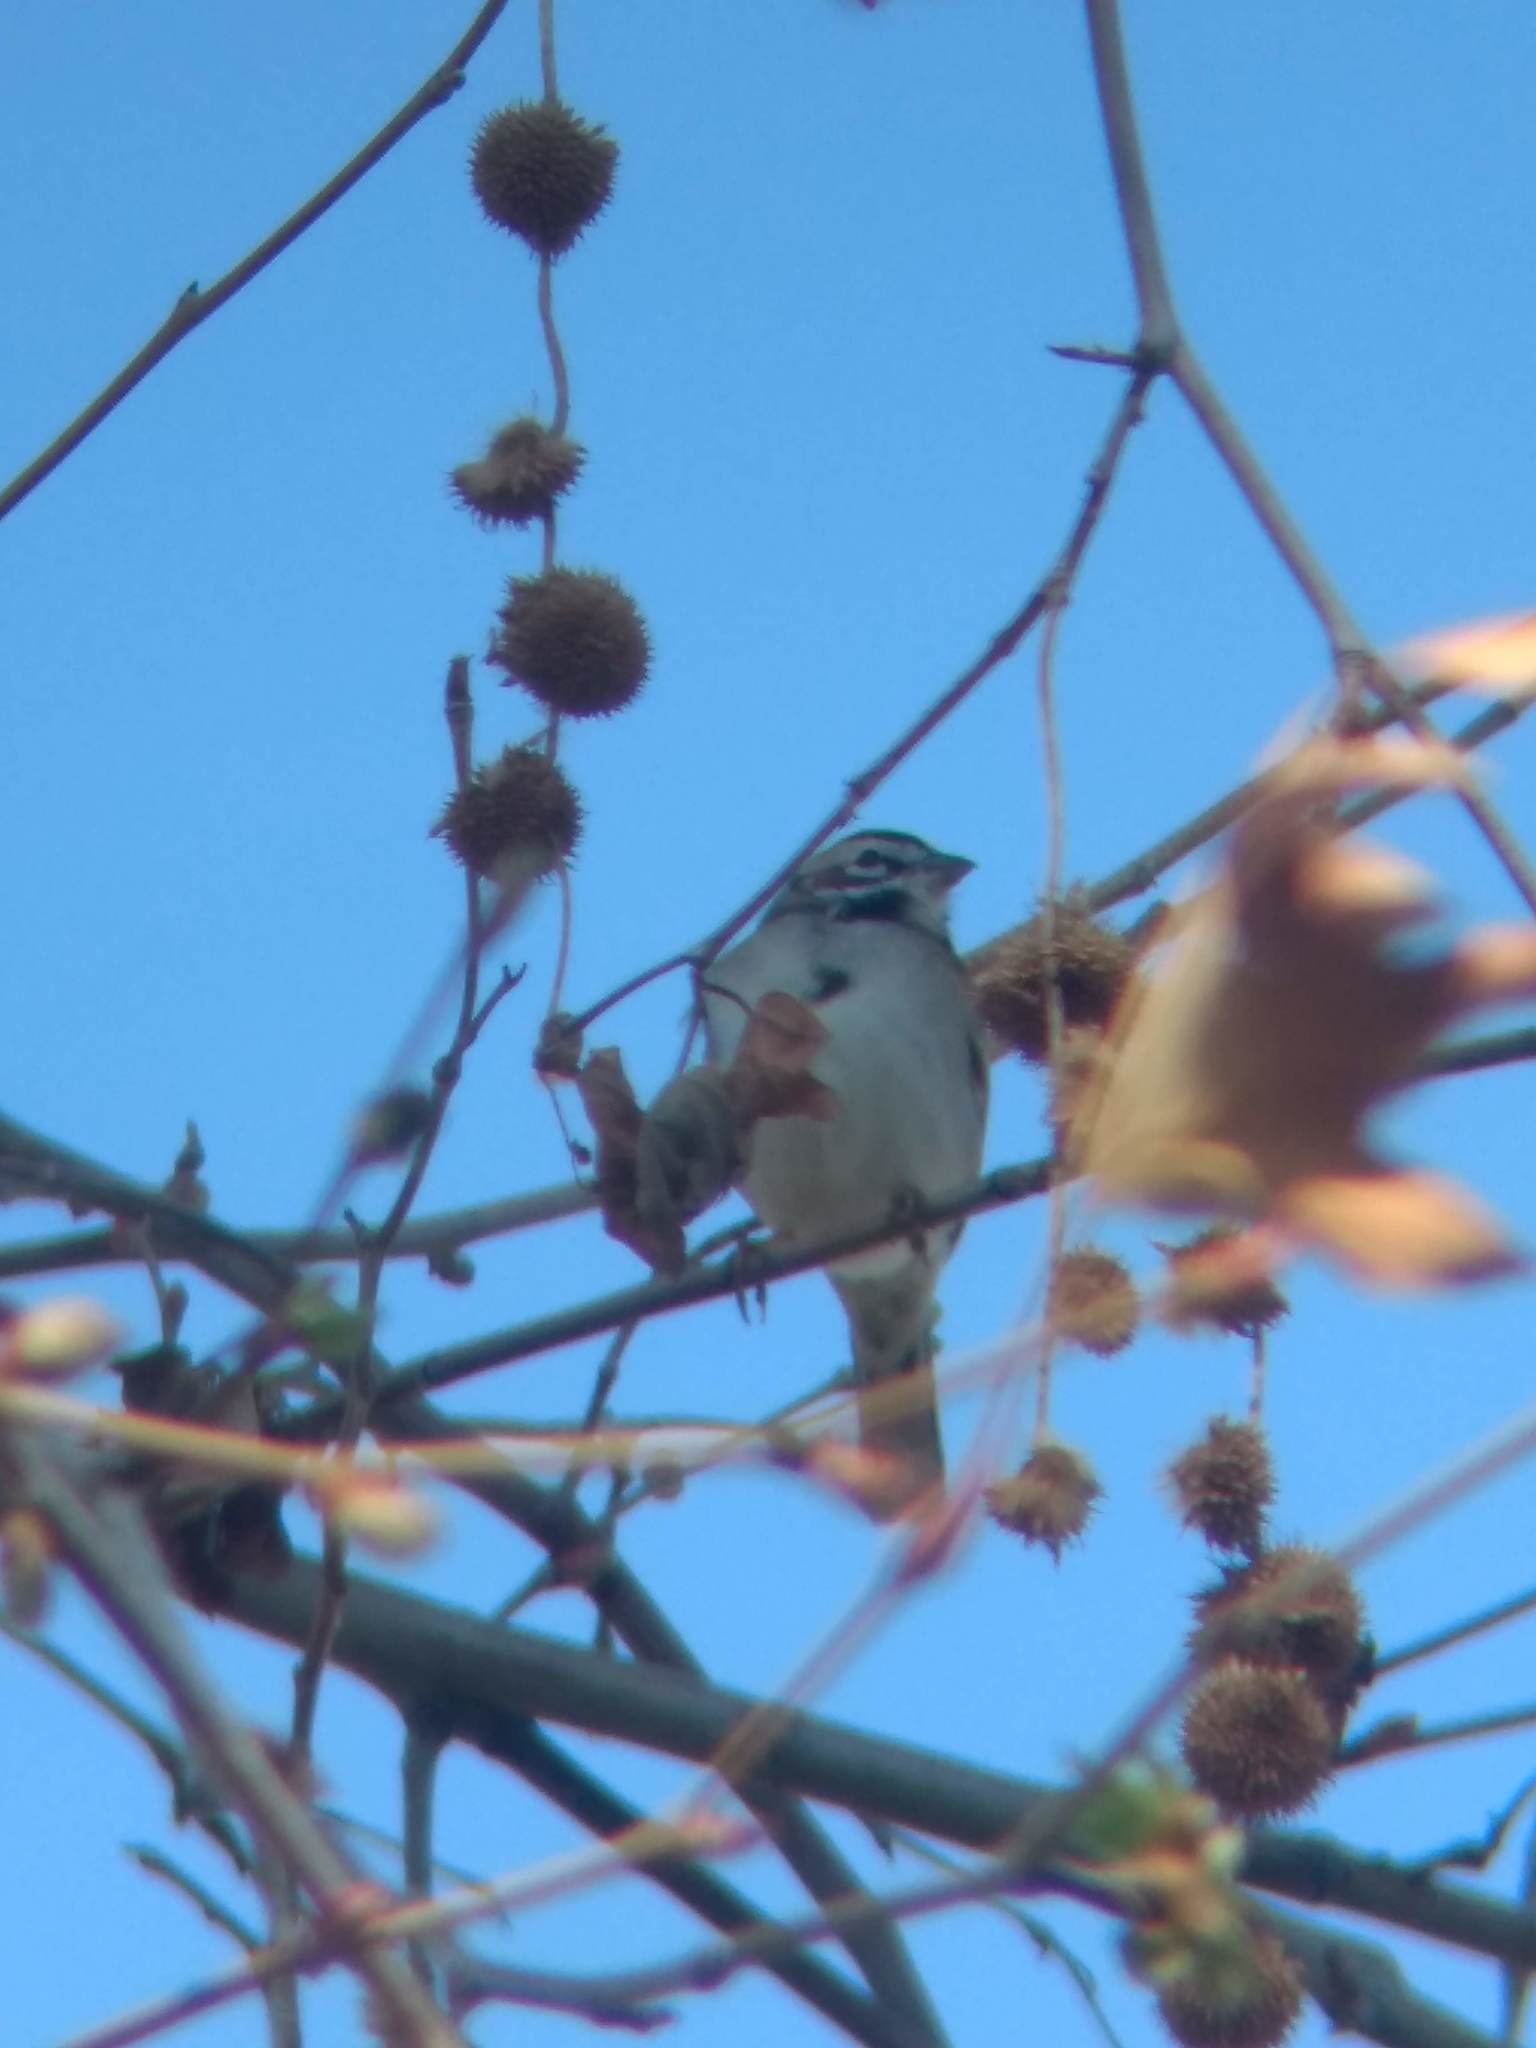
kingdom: Animalia
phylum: Chordata
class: Aves
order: Passeriformes
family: Passerellidae
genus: Chondestes
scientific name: Chondestes grammacus
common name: Lark sparrow
